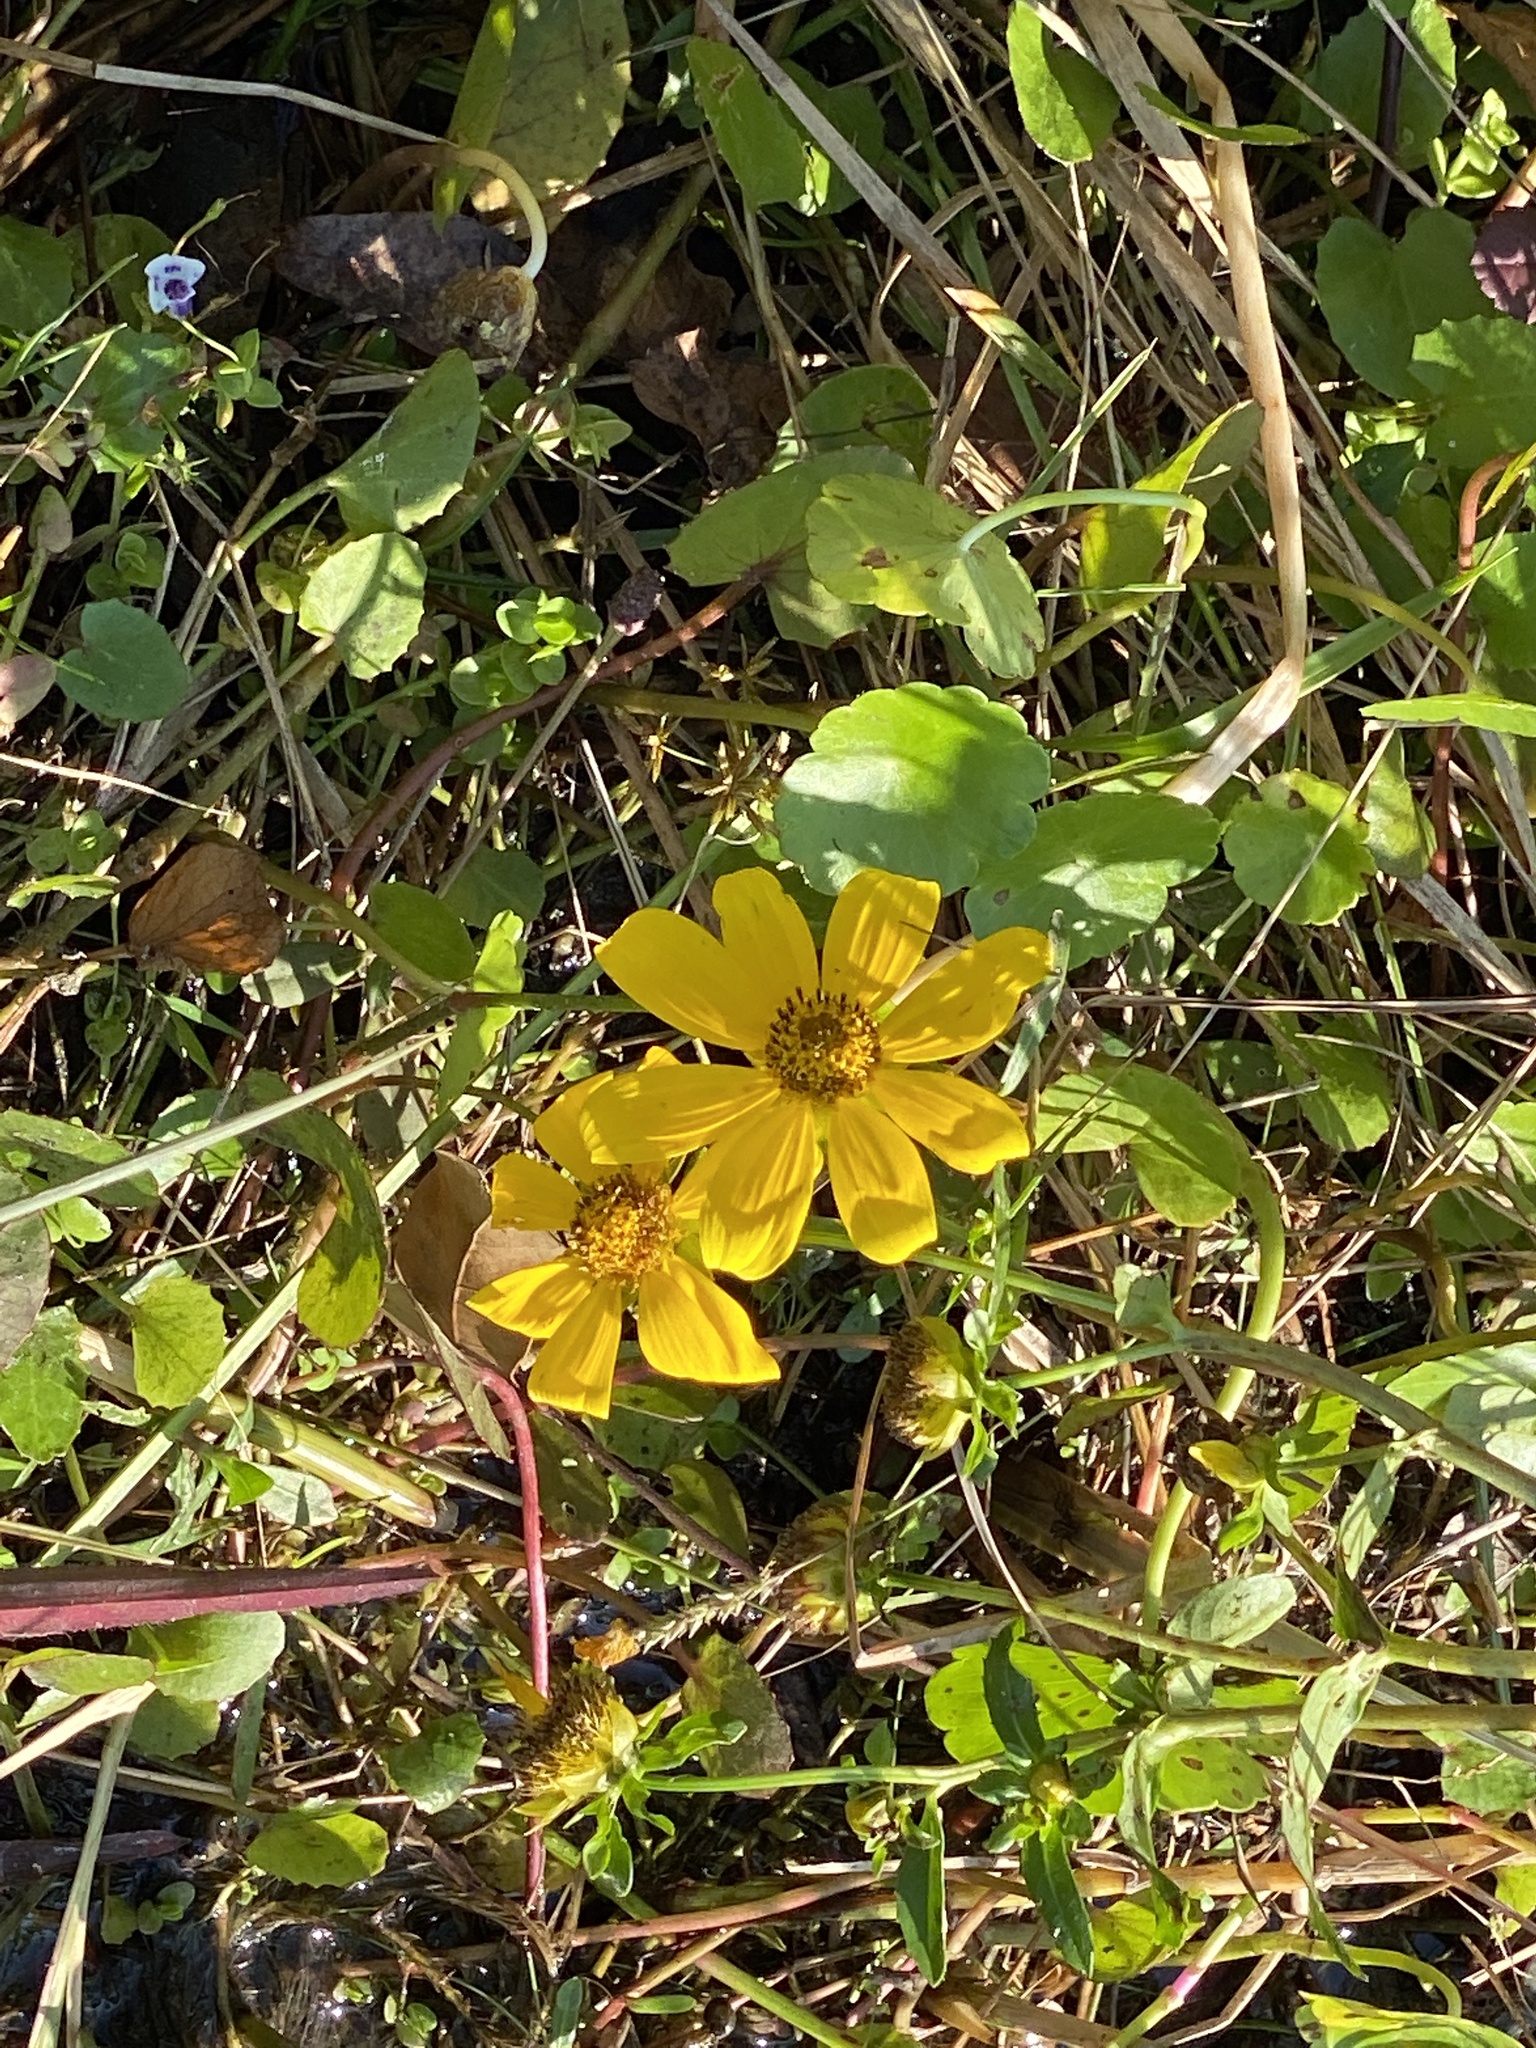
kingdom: Plantae
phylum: Tracheophyta
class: Magnoliopsida
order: Asterales
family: Asteraceae
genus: Bidens
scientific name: Bidens laevis
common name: Larger bur-marigold
